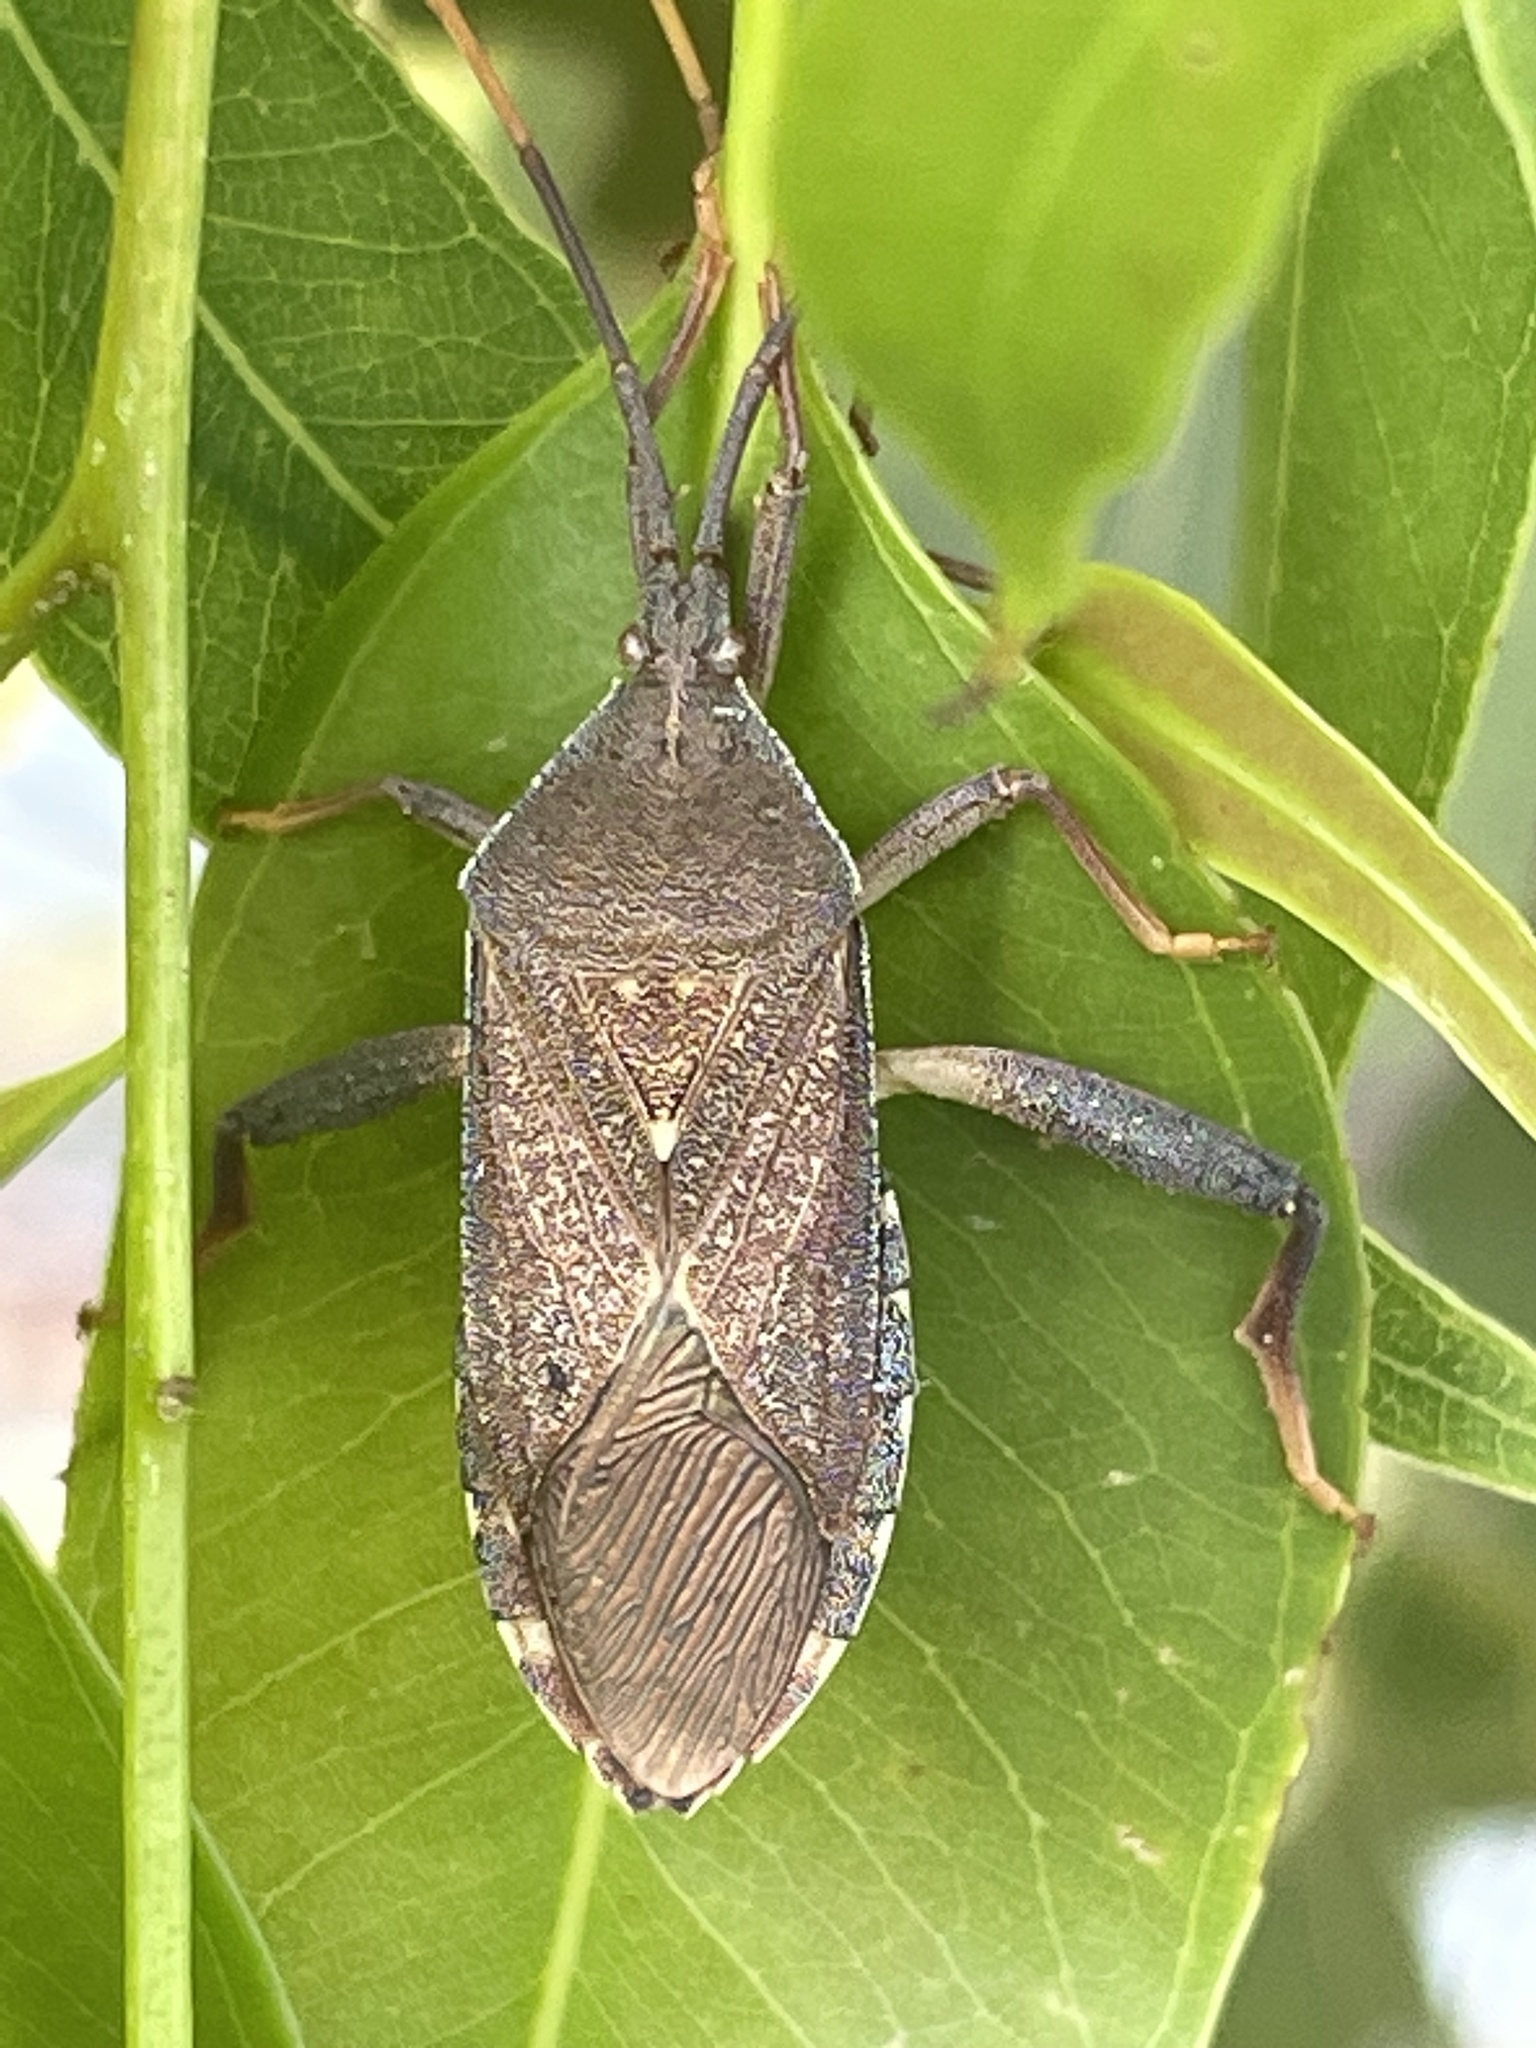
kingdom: Animalia
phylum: Arthropoda
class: Insecta
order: Hemiptera
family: Coreidae
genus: Amorbus
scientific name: Amorbus alternatus
